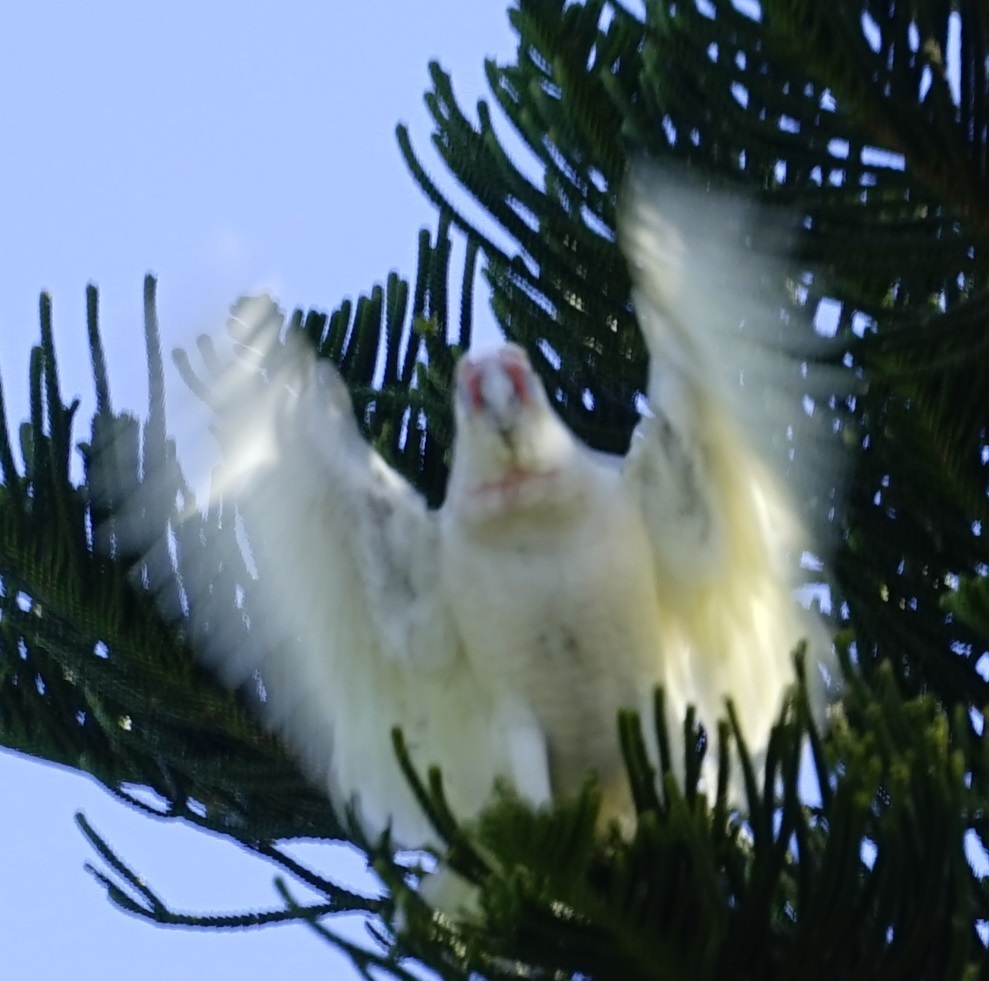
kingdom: Animalia
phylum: Chordata
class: Aves
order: Psittaciformes
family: Psittacidae
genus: Cacatua
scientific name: Cacatua tenuirostris
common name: Long-billed corella
